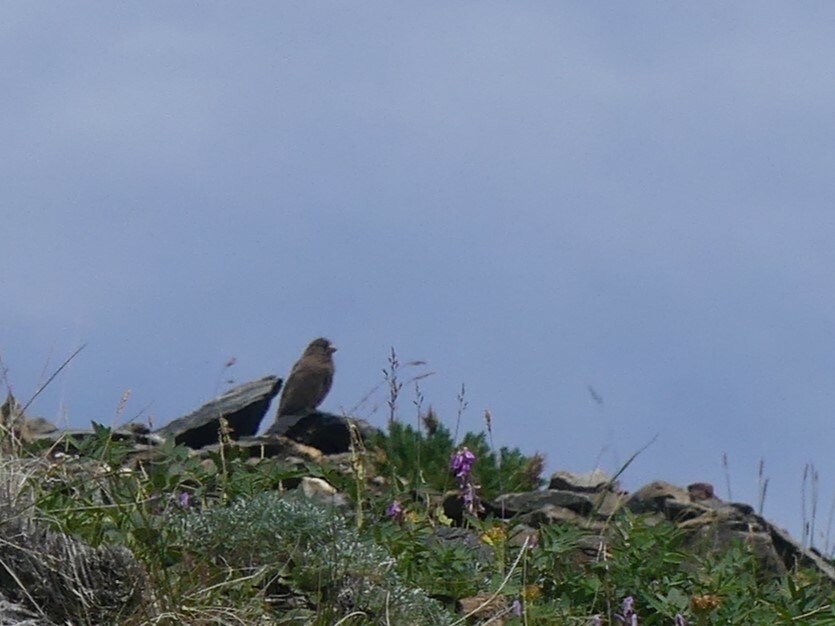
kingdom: Animalia
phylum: Chordata
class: Aves
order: Passeriformes
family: Fringillidae
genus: Leucosticte
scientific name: Leucosticte tephrocotis
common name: Gray-crowned rosy-finch
